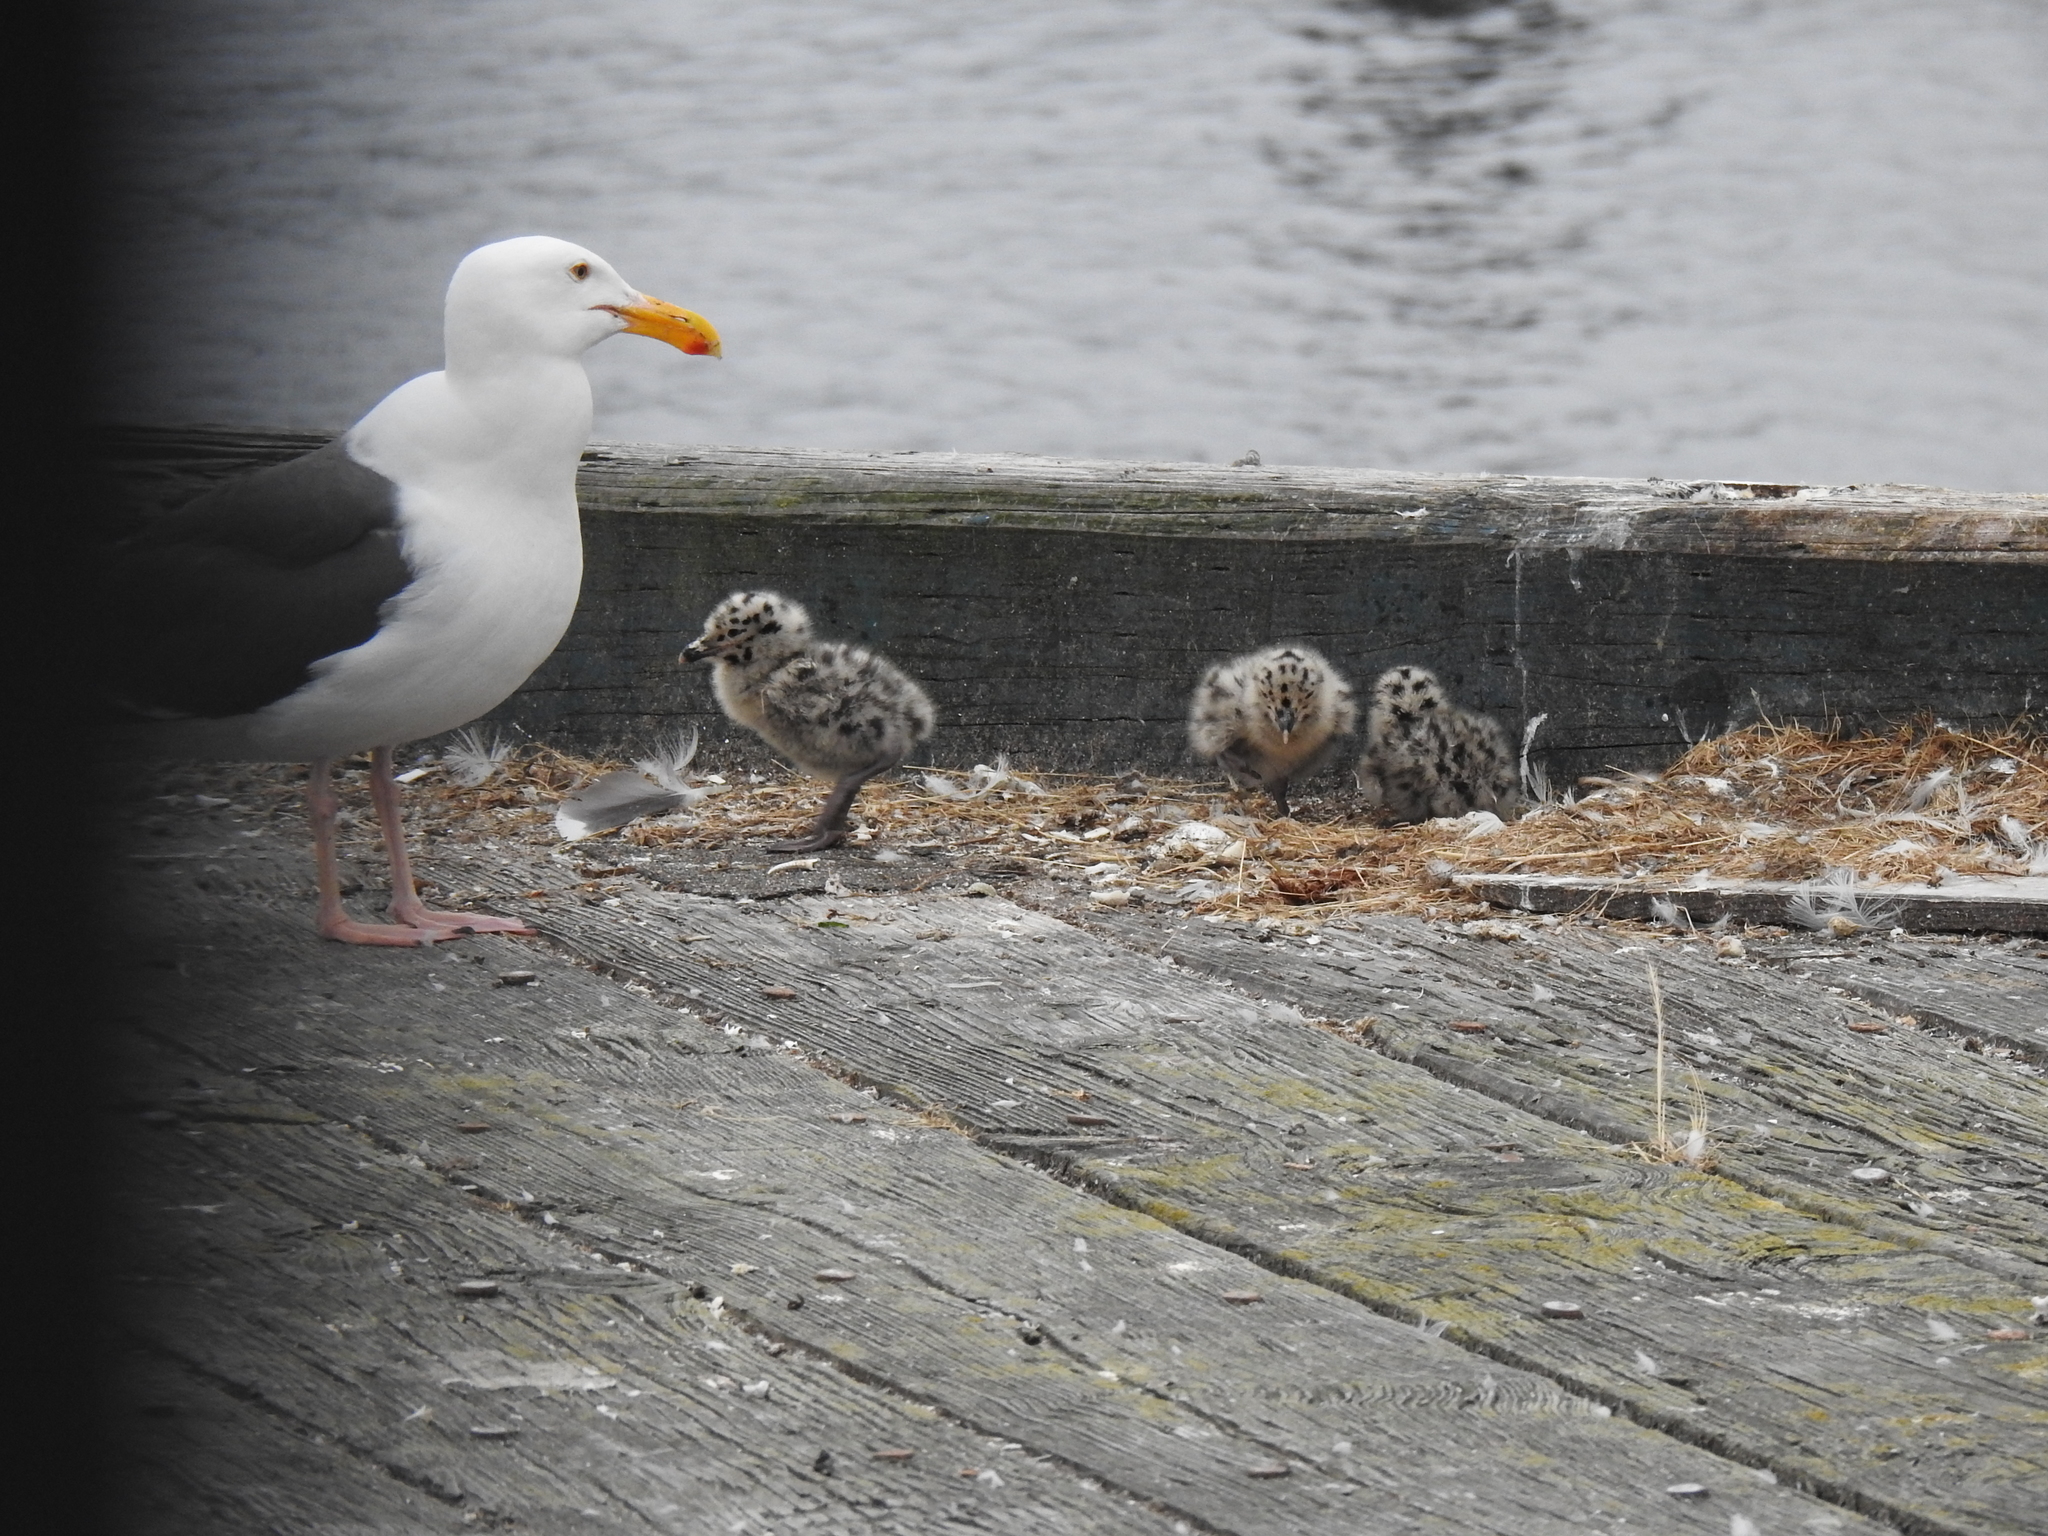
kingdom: Animalia
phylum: Chordata
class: Aves
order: Charadriiformes
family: Laridae
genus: Larus
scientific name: Larus occidentalis
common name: Western gull
